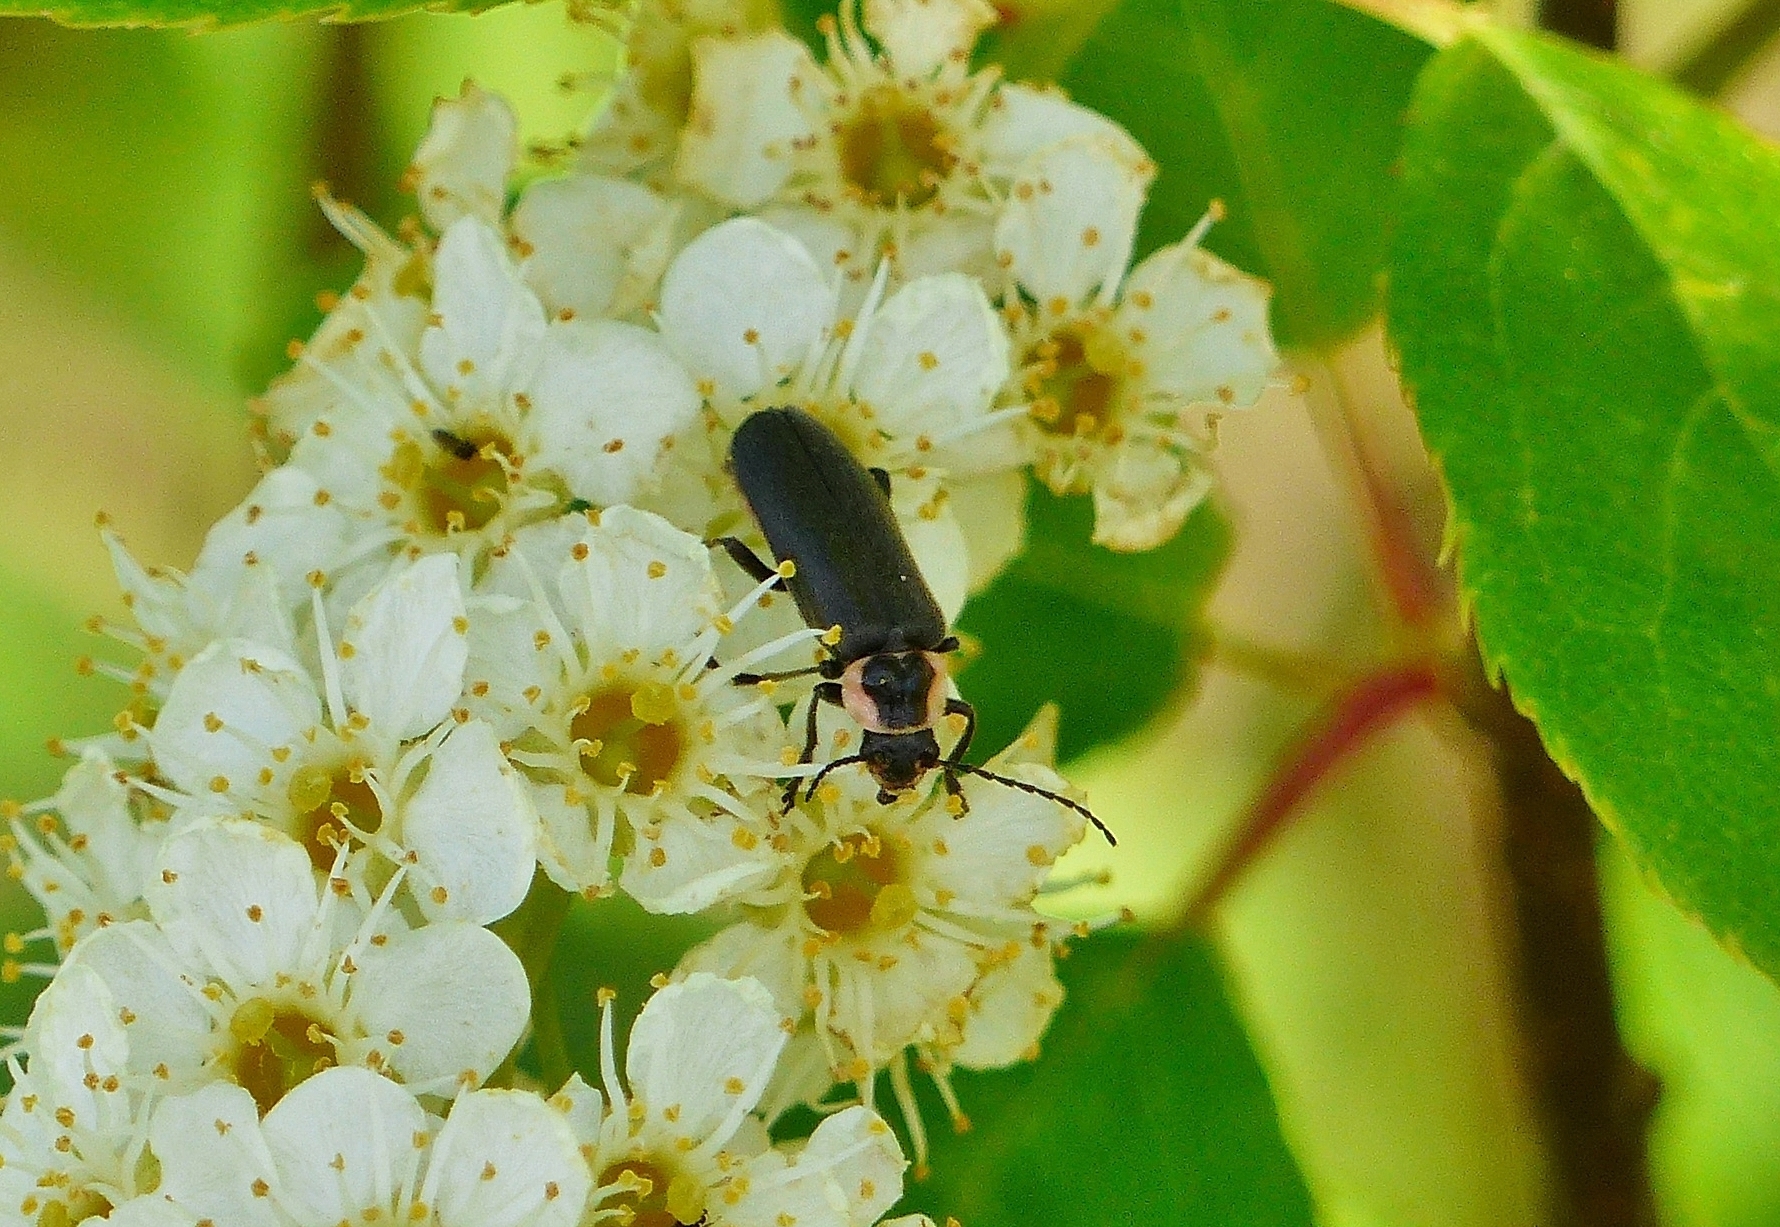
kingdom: Animalia
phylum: Arthropoda
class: Insecta
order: Coleoptera
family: Cantharidae
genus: Atalantycha
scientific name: Atalantycha neglecta
